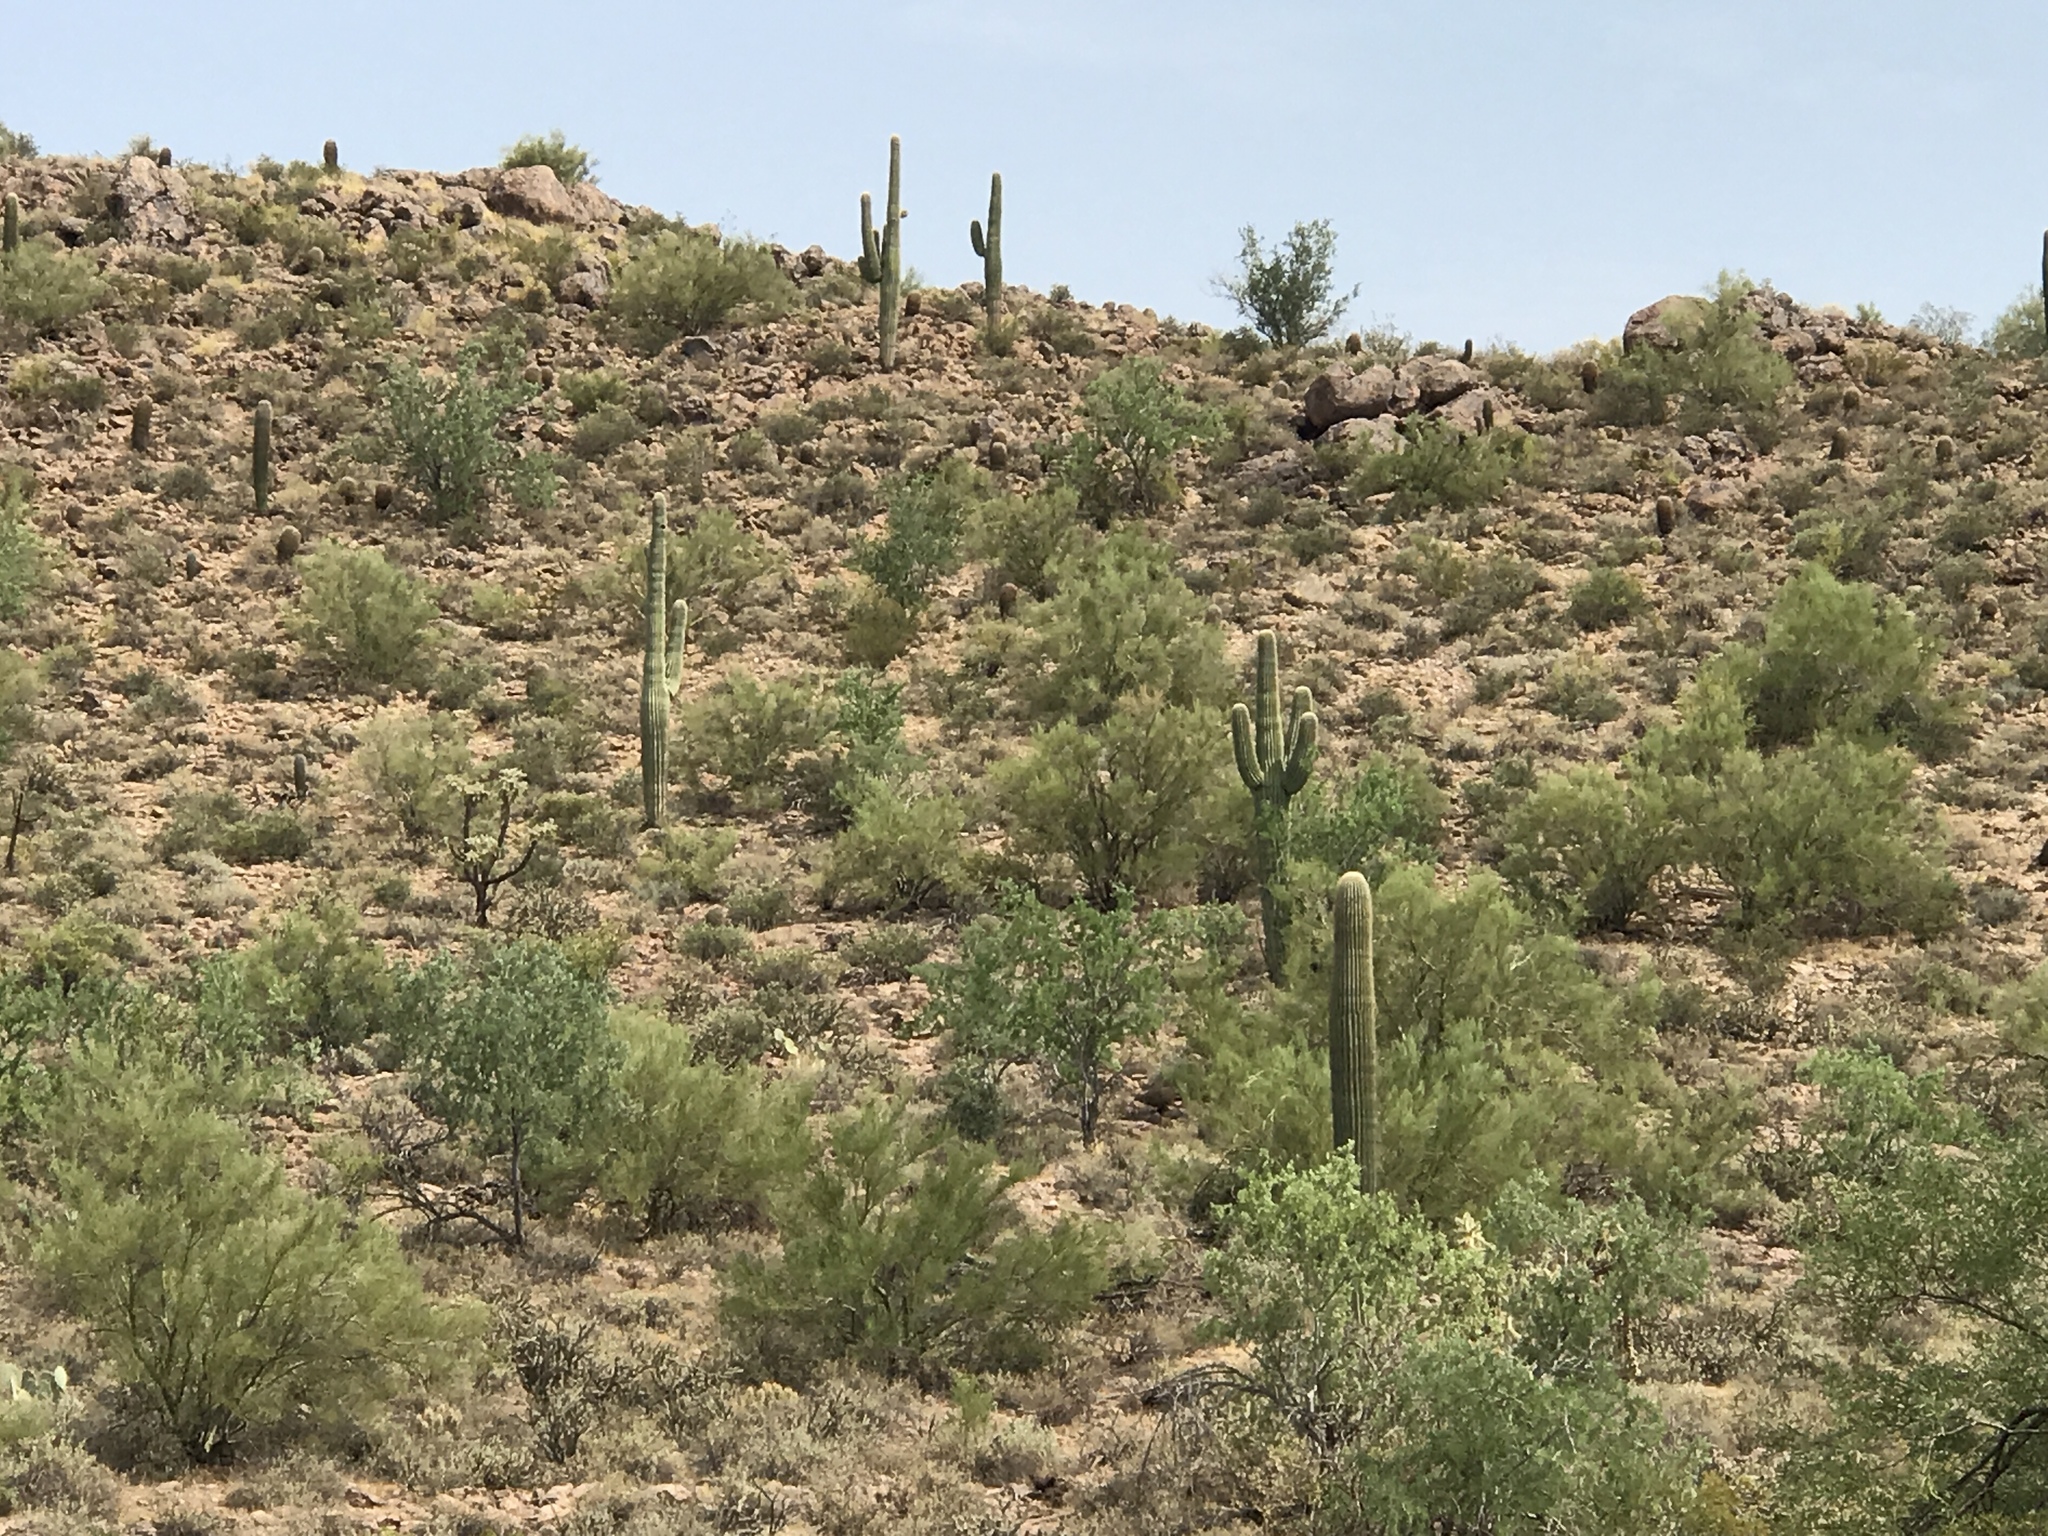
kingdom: Plantae
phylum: Tracheophyta
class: Magnoliopsida
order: Caryophyllales
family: Cactaceae
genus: Carnegiea
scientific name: Carnegiea gigantea
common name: Saguaro
